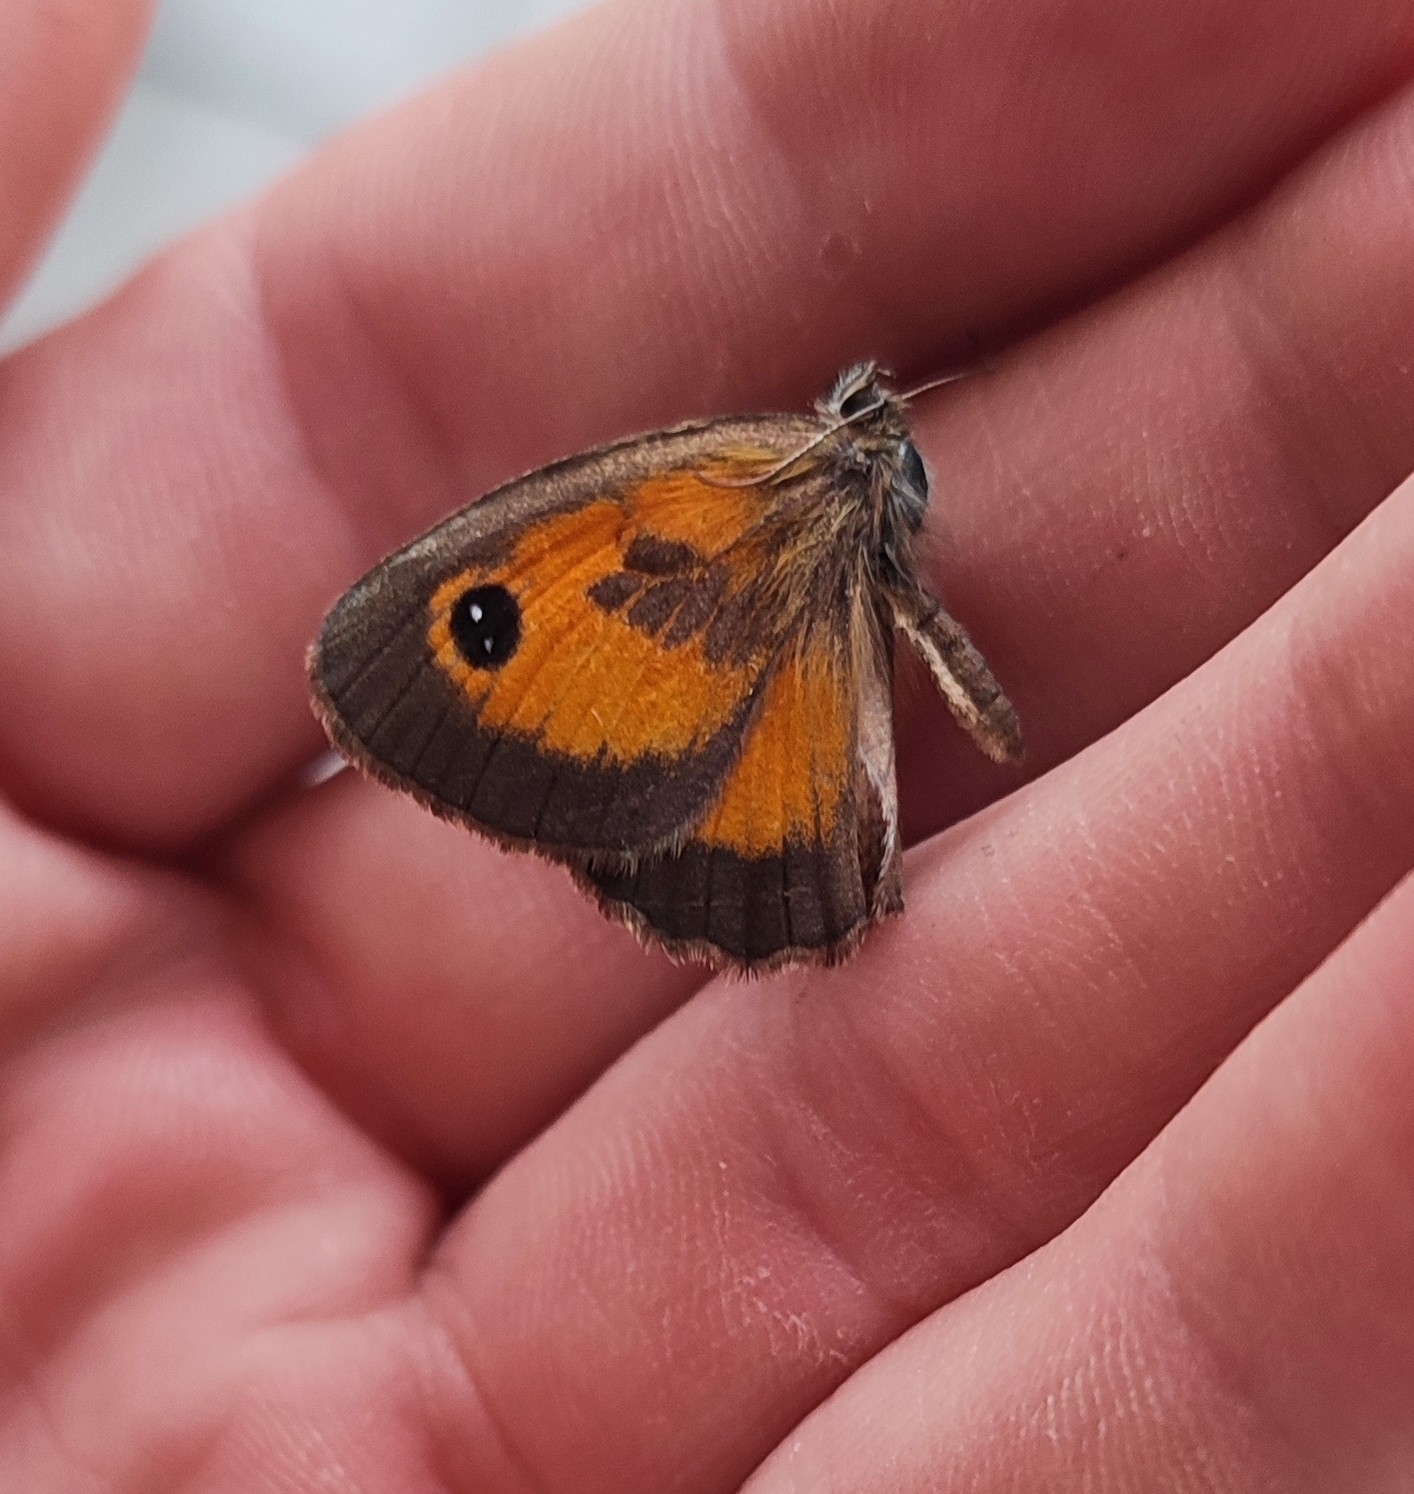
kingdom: Animalia
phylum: Arthropoda
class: Insecta
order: Lepidoptera
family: Nymphalidae
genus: Pyronia
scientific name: Pyronia cecilia
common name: Southern gatekeeper
